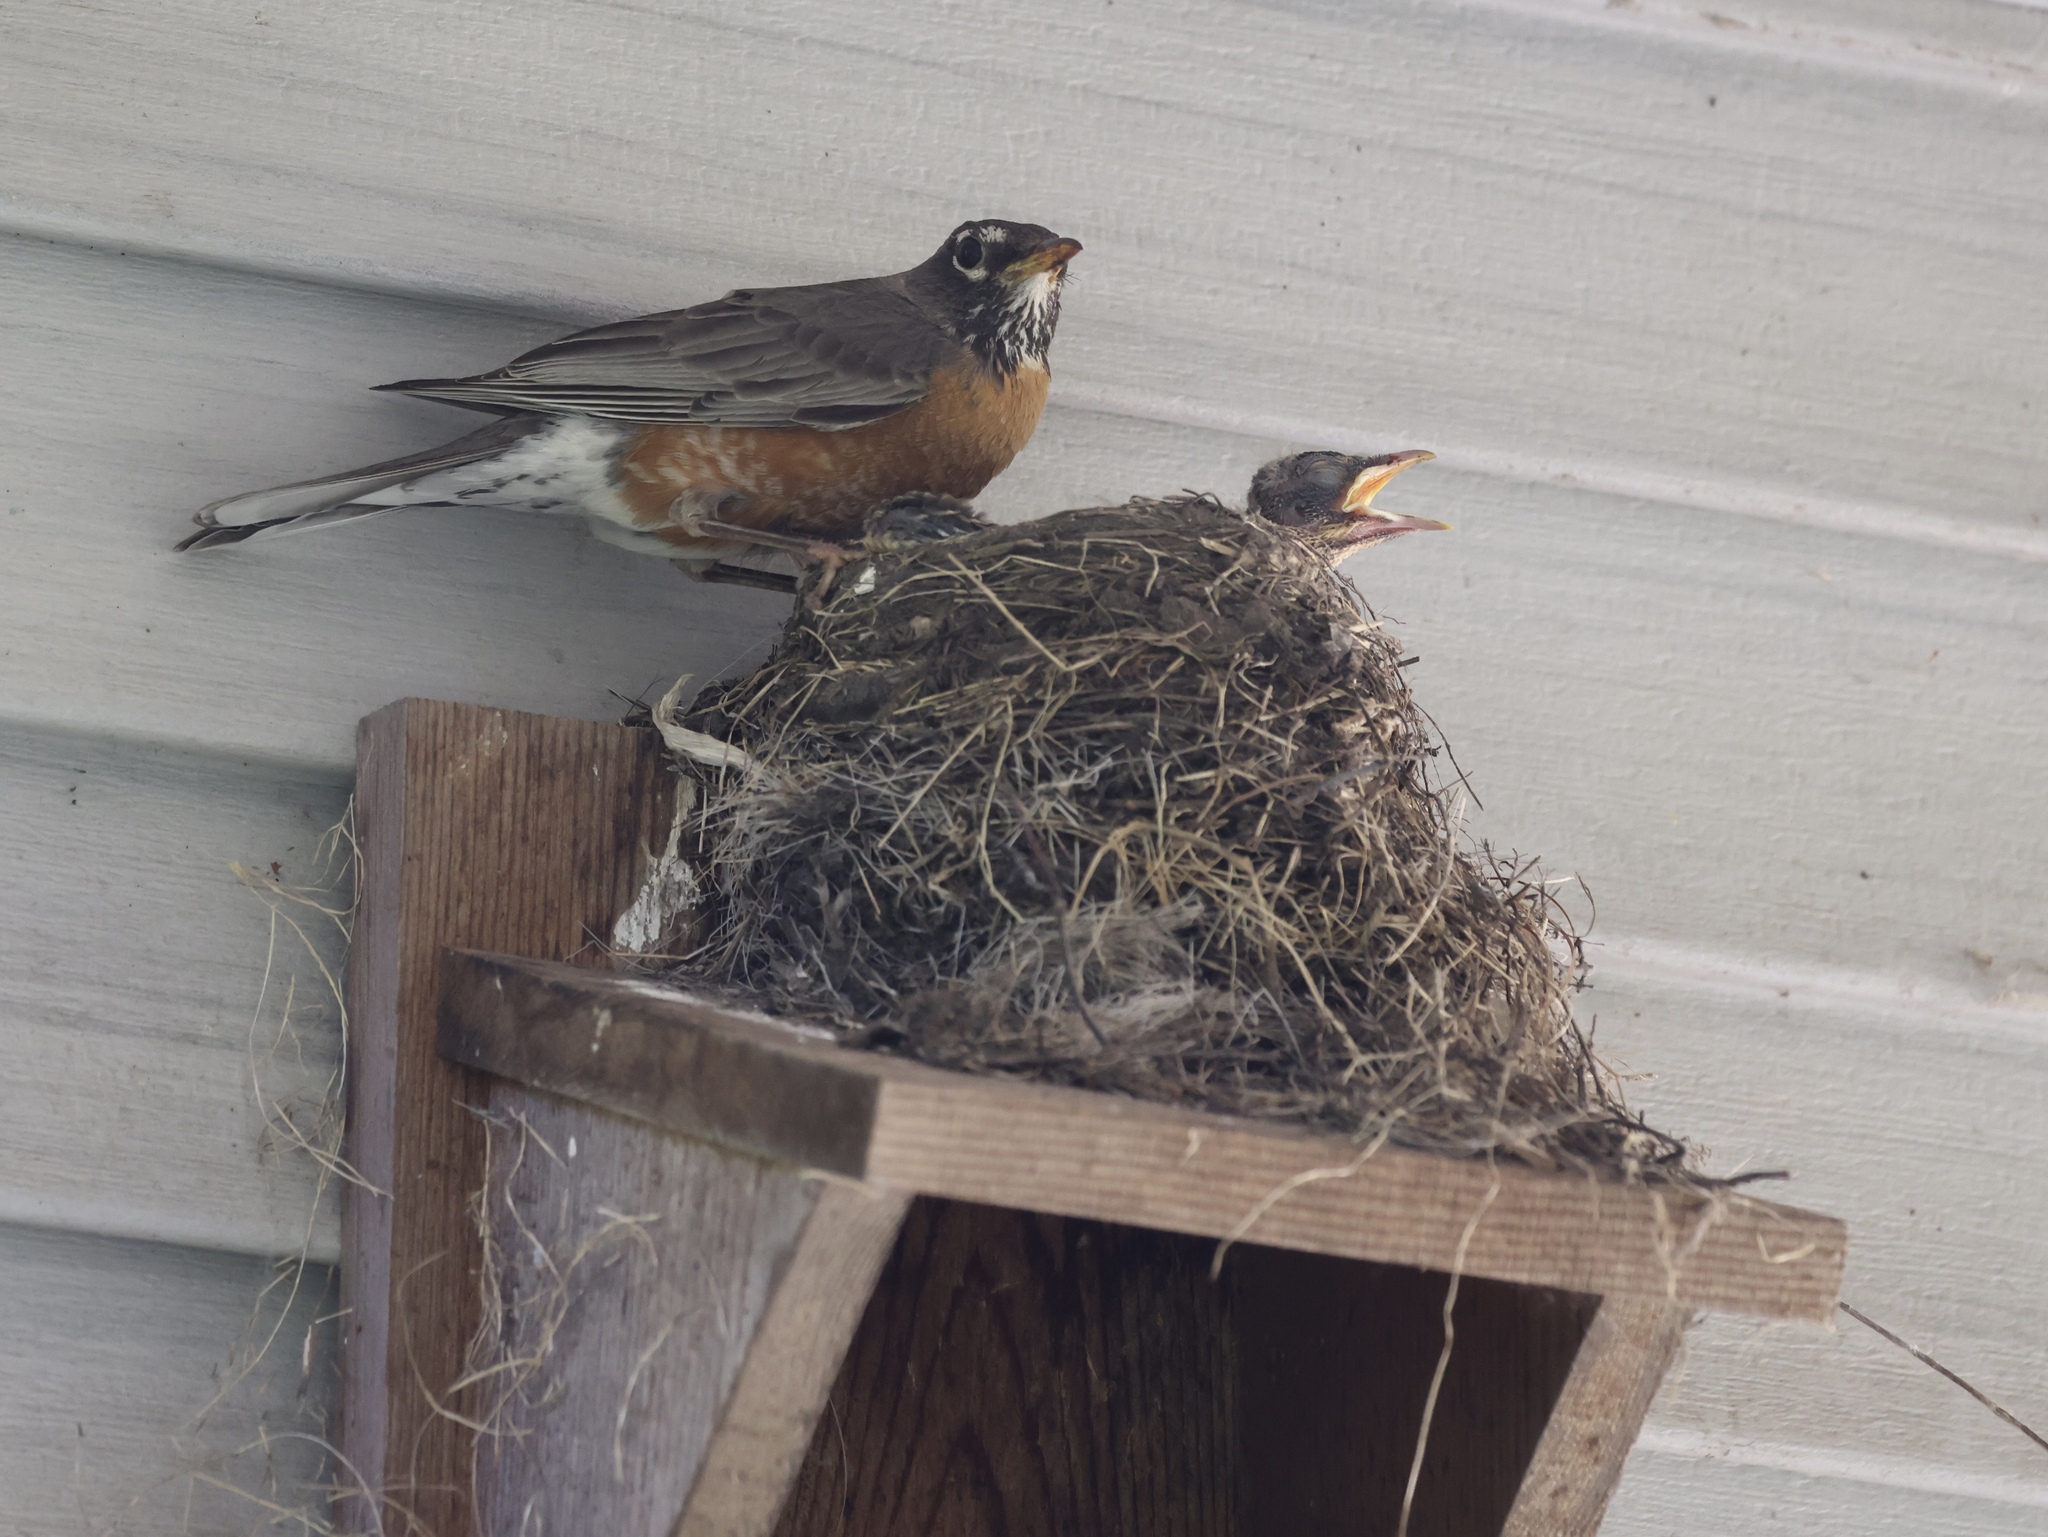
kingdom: Animalia
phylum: Chordata
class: Aves
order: Passeriformes
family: Turdidae
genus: Turdus
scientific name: Turdus migratorius
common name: American robin
